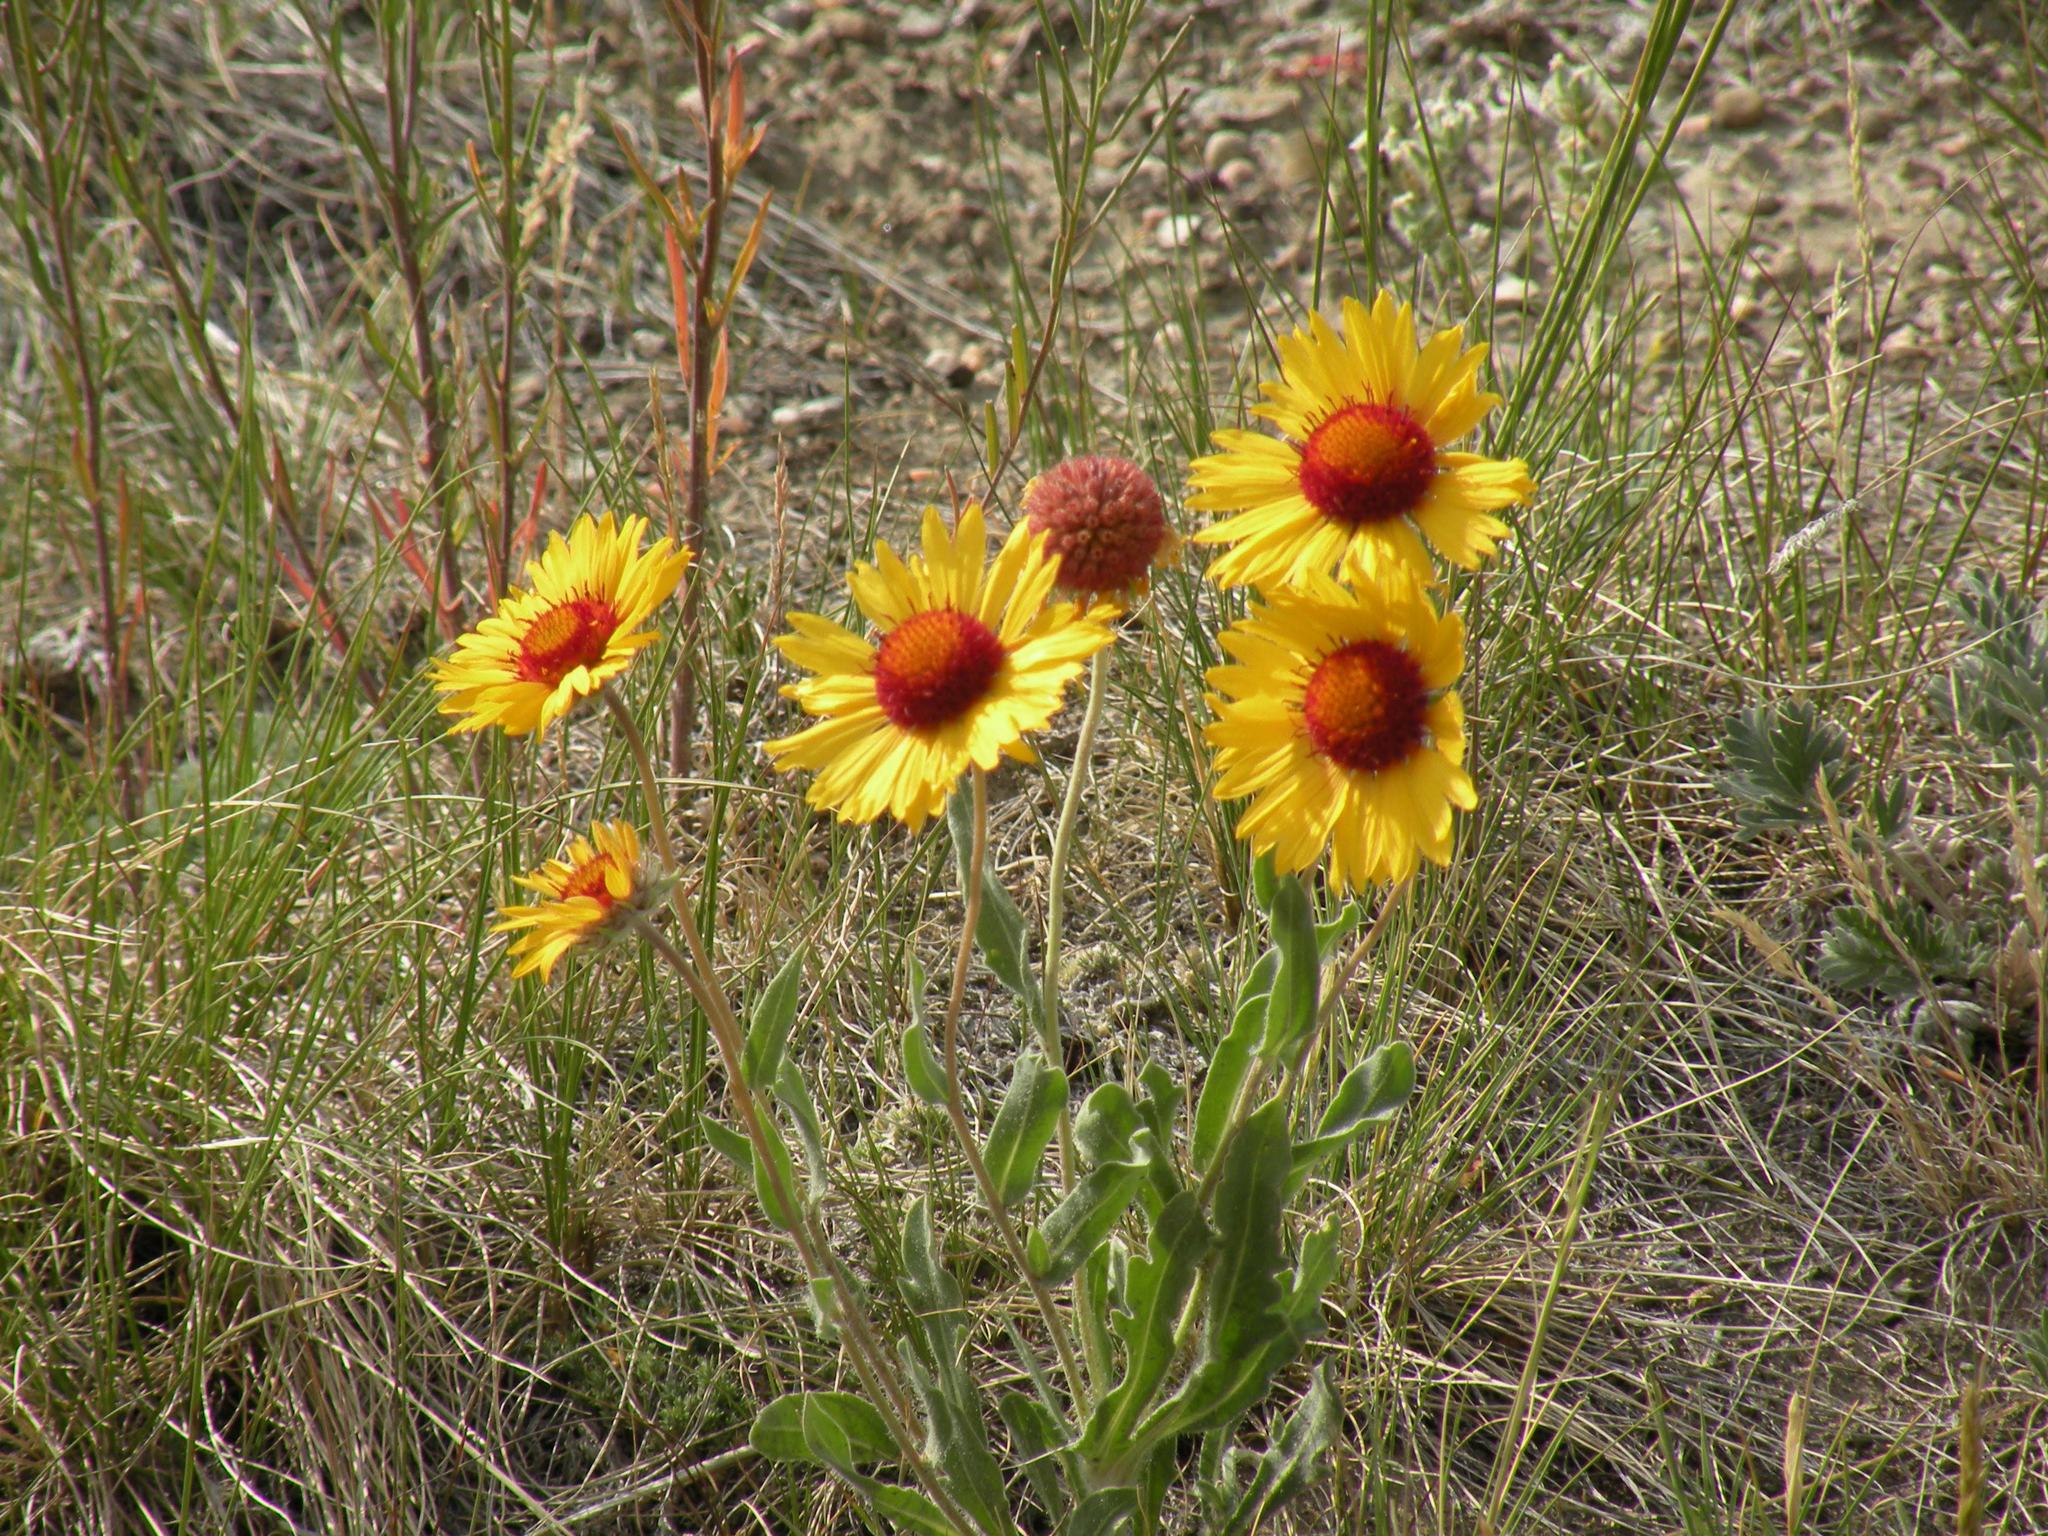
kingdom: Plantae
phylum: Tracheophyta
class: Magnoliopsida
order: Asterales
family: Asteraceae
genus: Gaillardia
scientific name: Gaillardia aristata
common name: Blanket-flower
